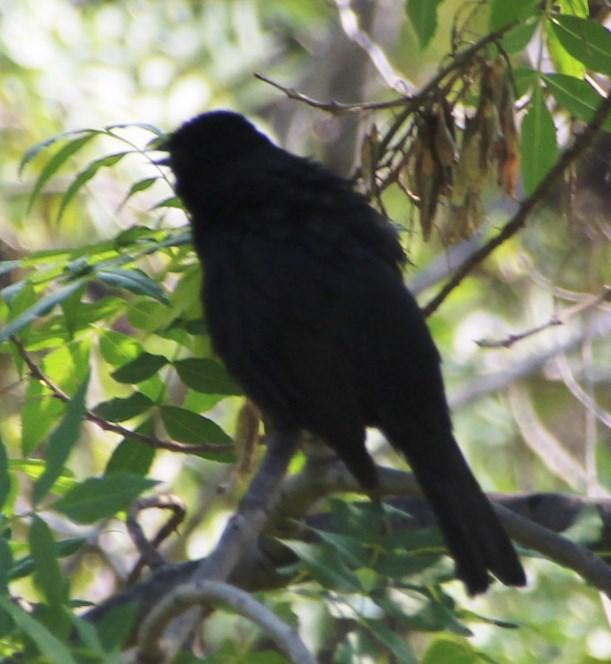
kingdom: Animalia
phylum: Chordata
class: Aves
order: Passeriformes
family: Icteridae
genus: Curaeus
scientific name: Curaeus curaeus
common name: Austral blackbird
